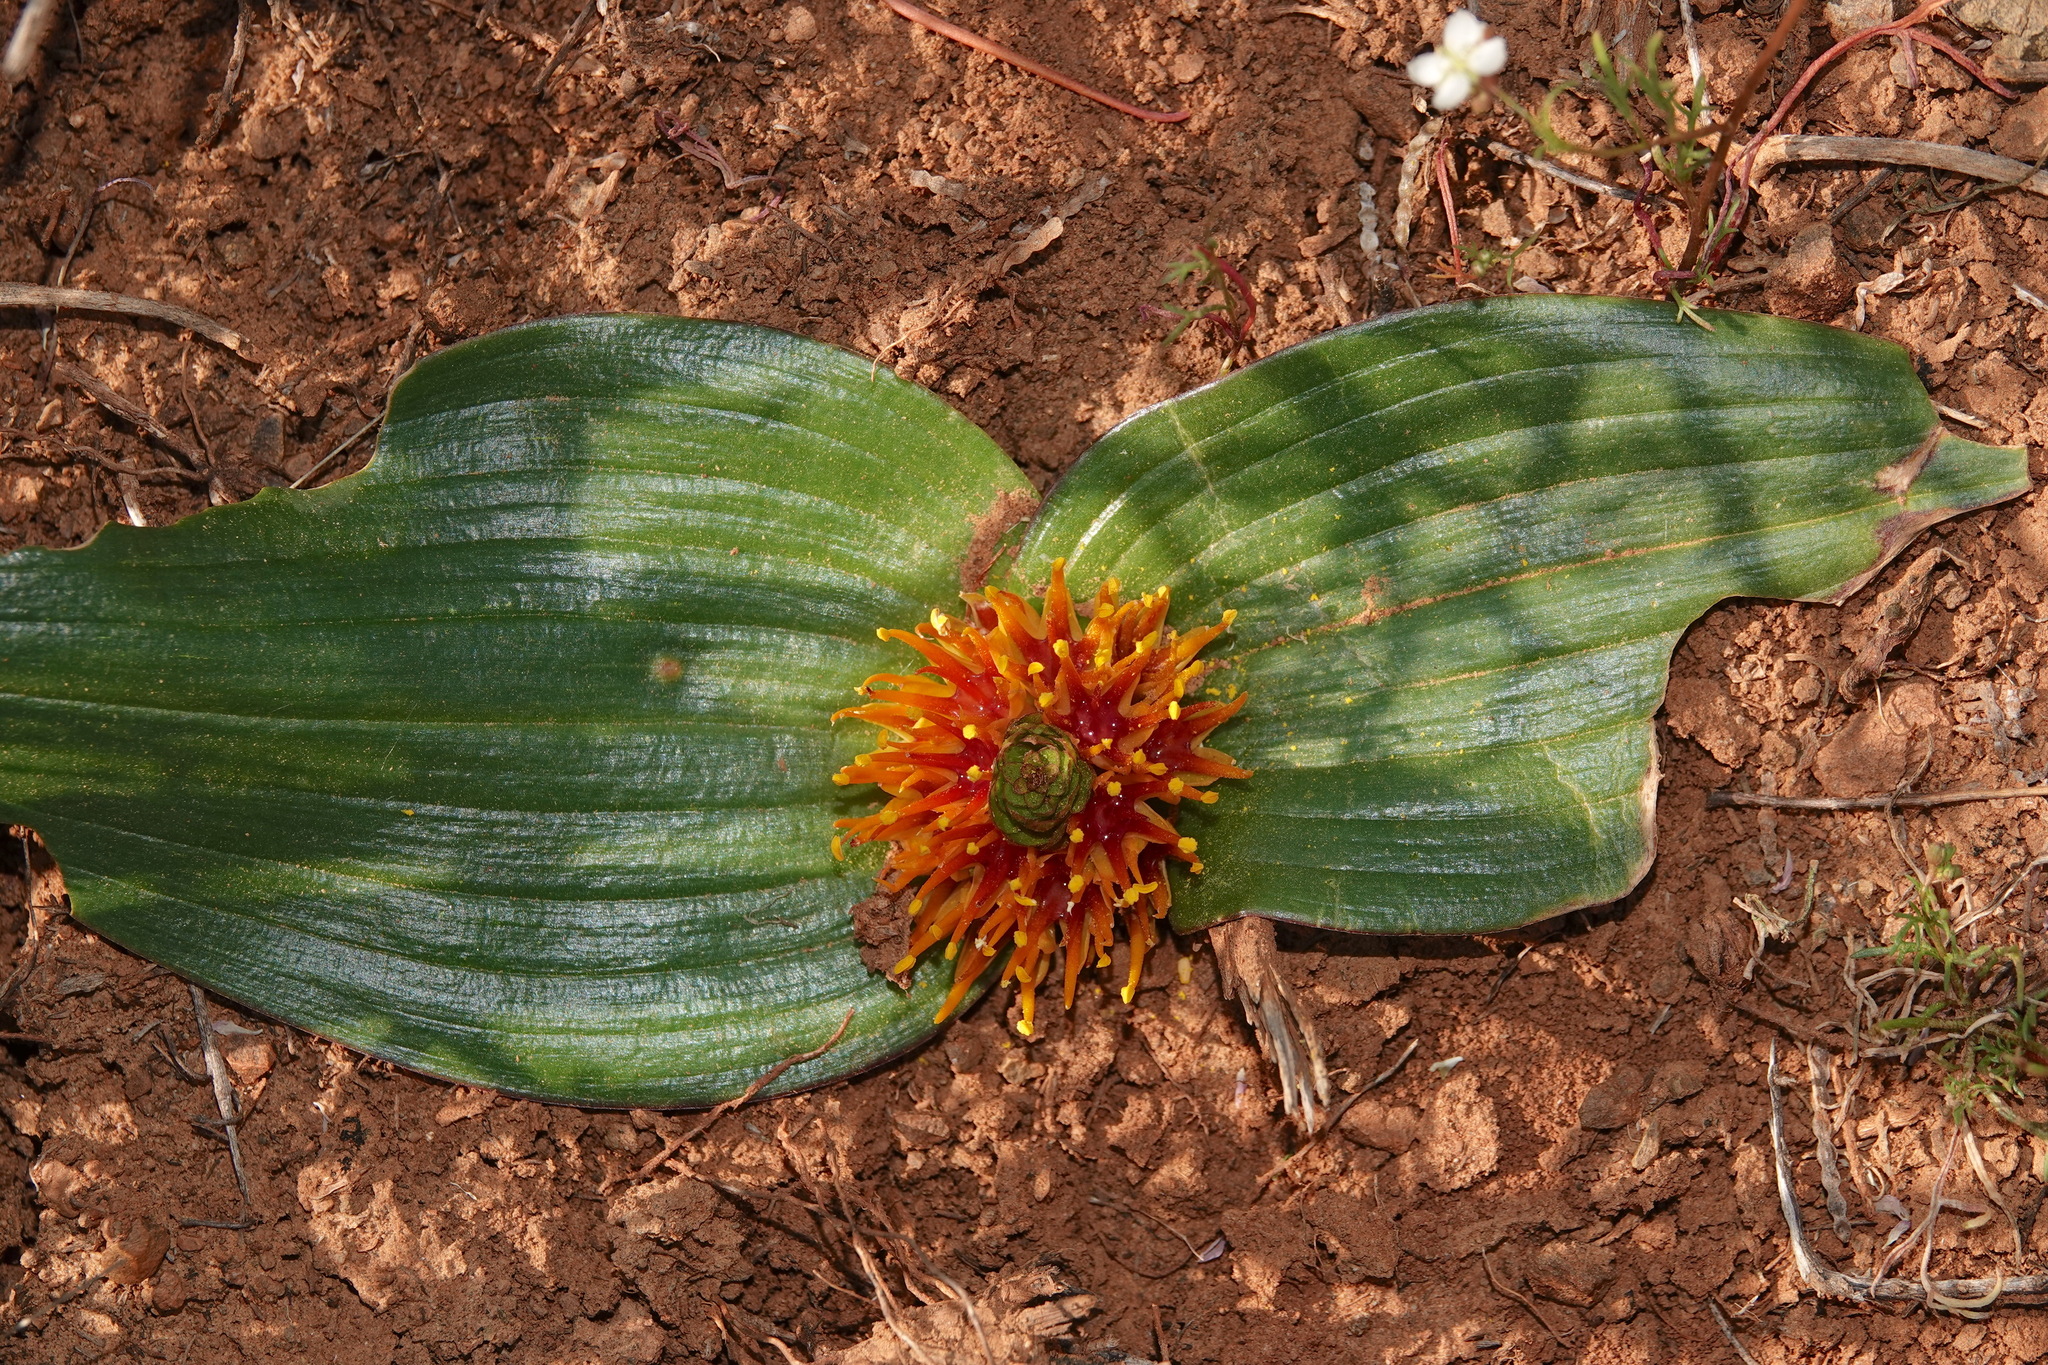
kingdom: Plantae
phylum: Tracheophyta
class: Liliopsida
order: Asparagales
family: Asparagaceae
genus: Daubenya
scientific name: Daubenya marginata
